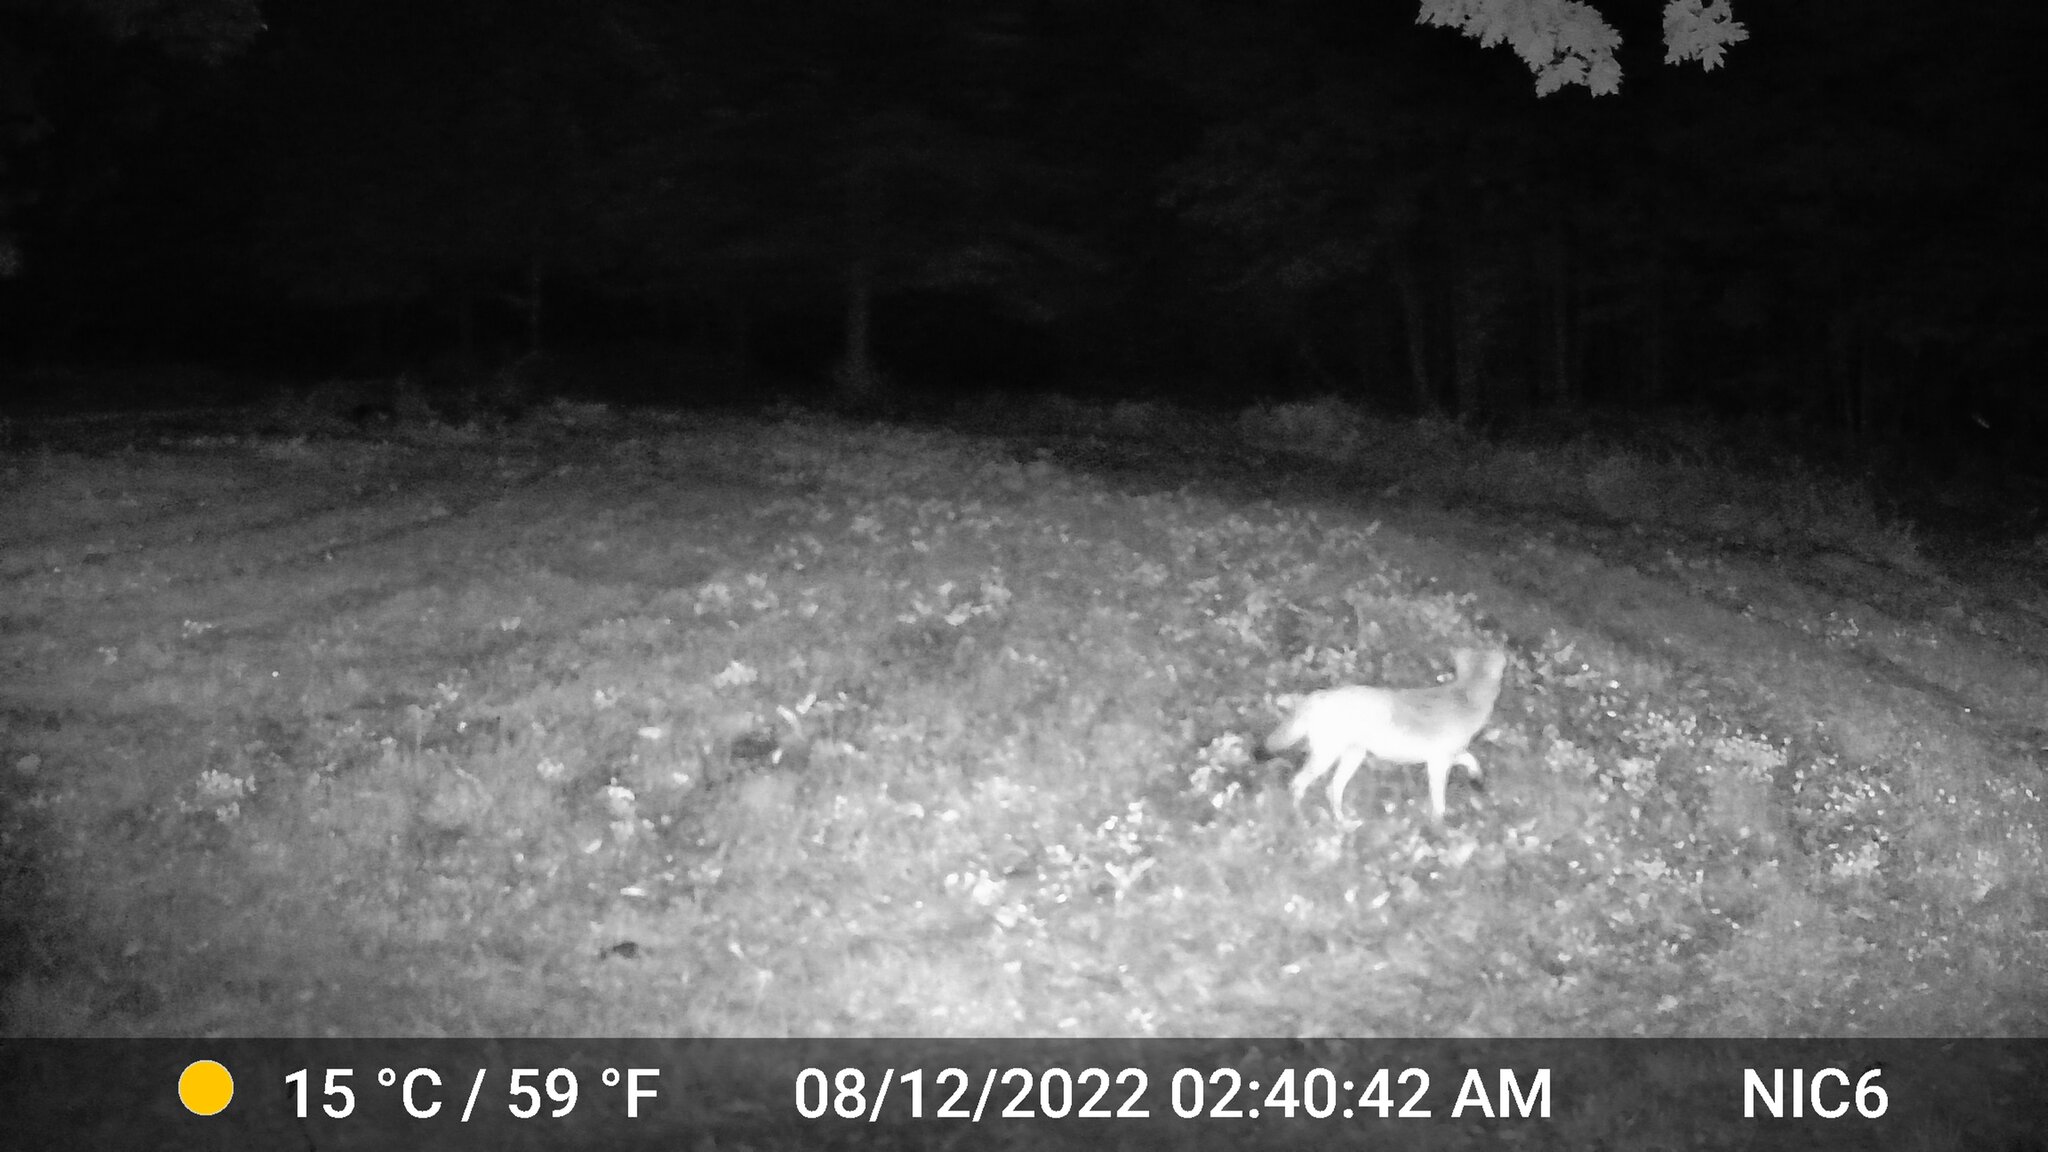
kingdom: Animalia
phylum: Chordata
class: Mammalia
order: Carnivora
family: Canidae
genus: Canis
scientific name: Canis latrans
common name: Coyote
